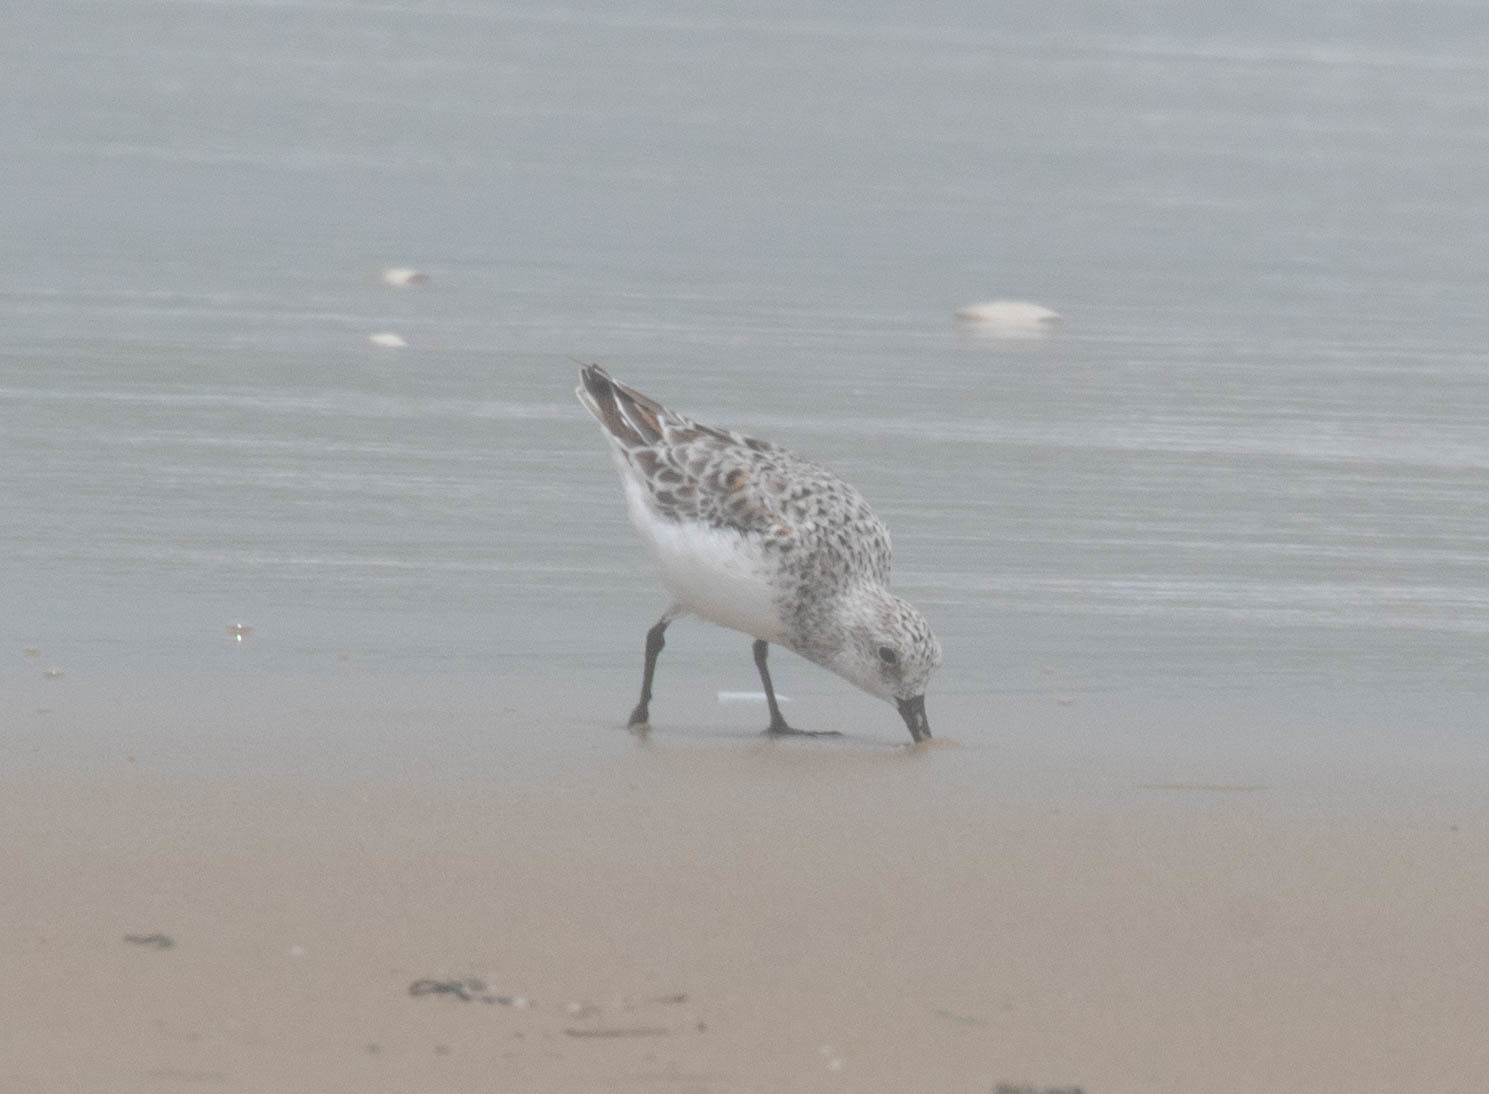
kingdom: Animalia
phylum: Chordata
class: Aves
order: Charadriiformes
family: Scolopacidae
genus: Calidris
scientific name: Calidris alba
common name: Sanderling
